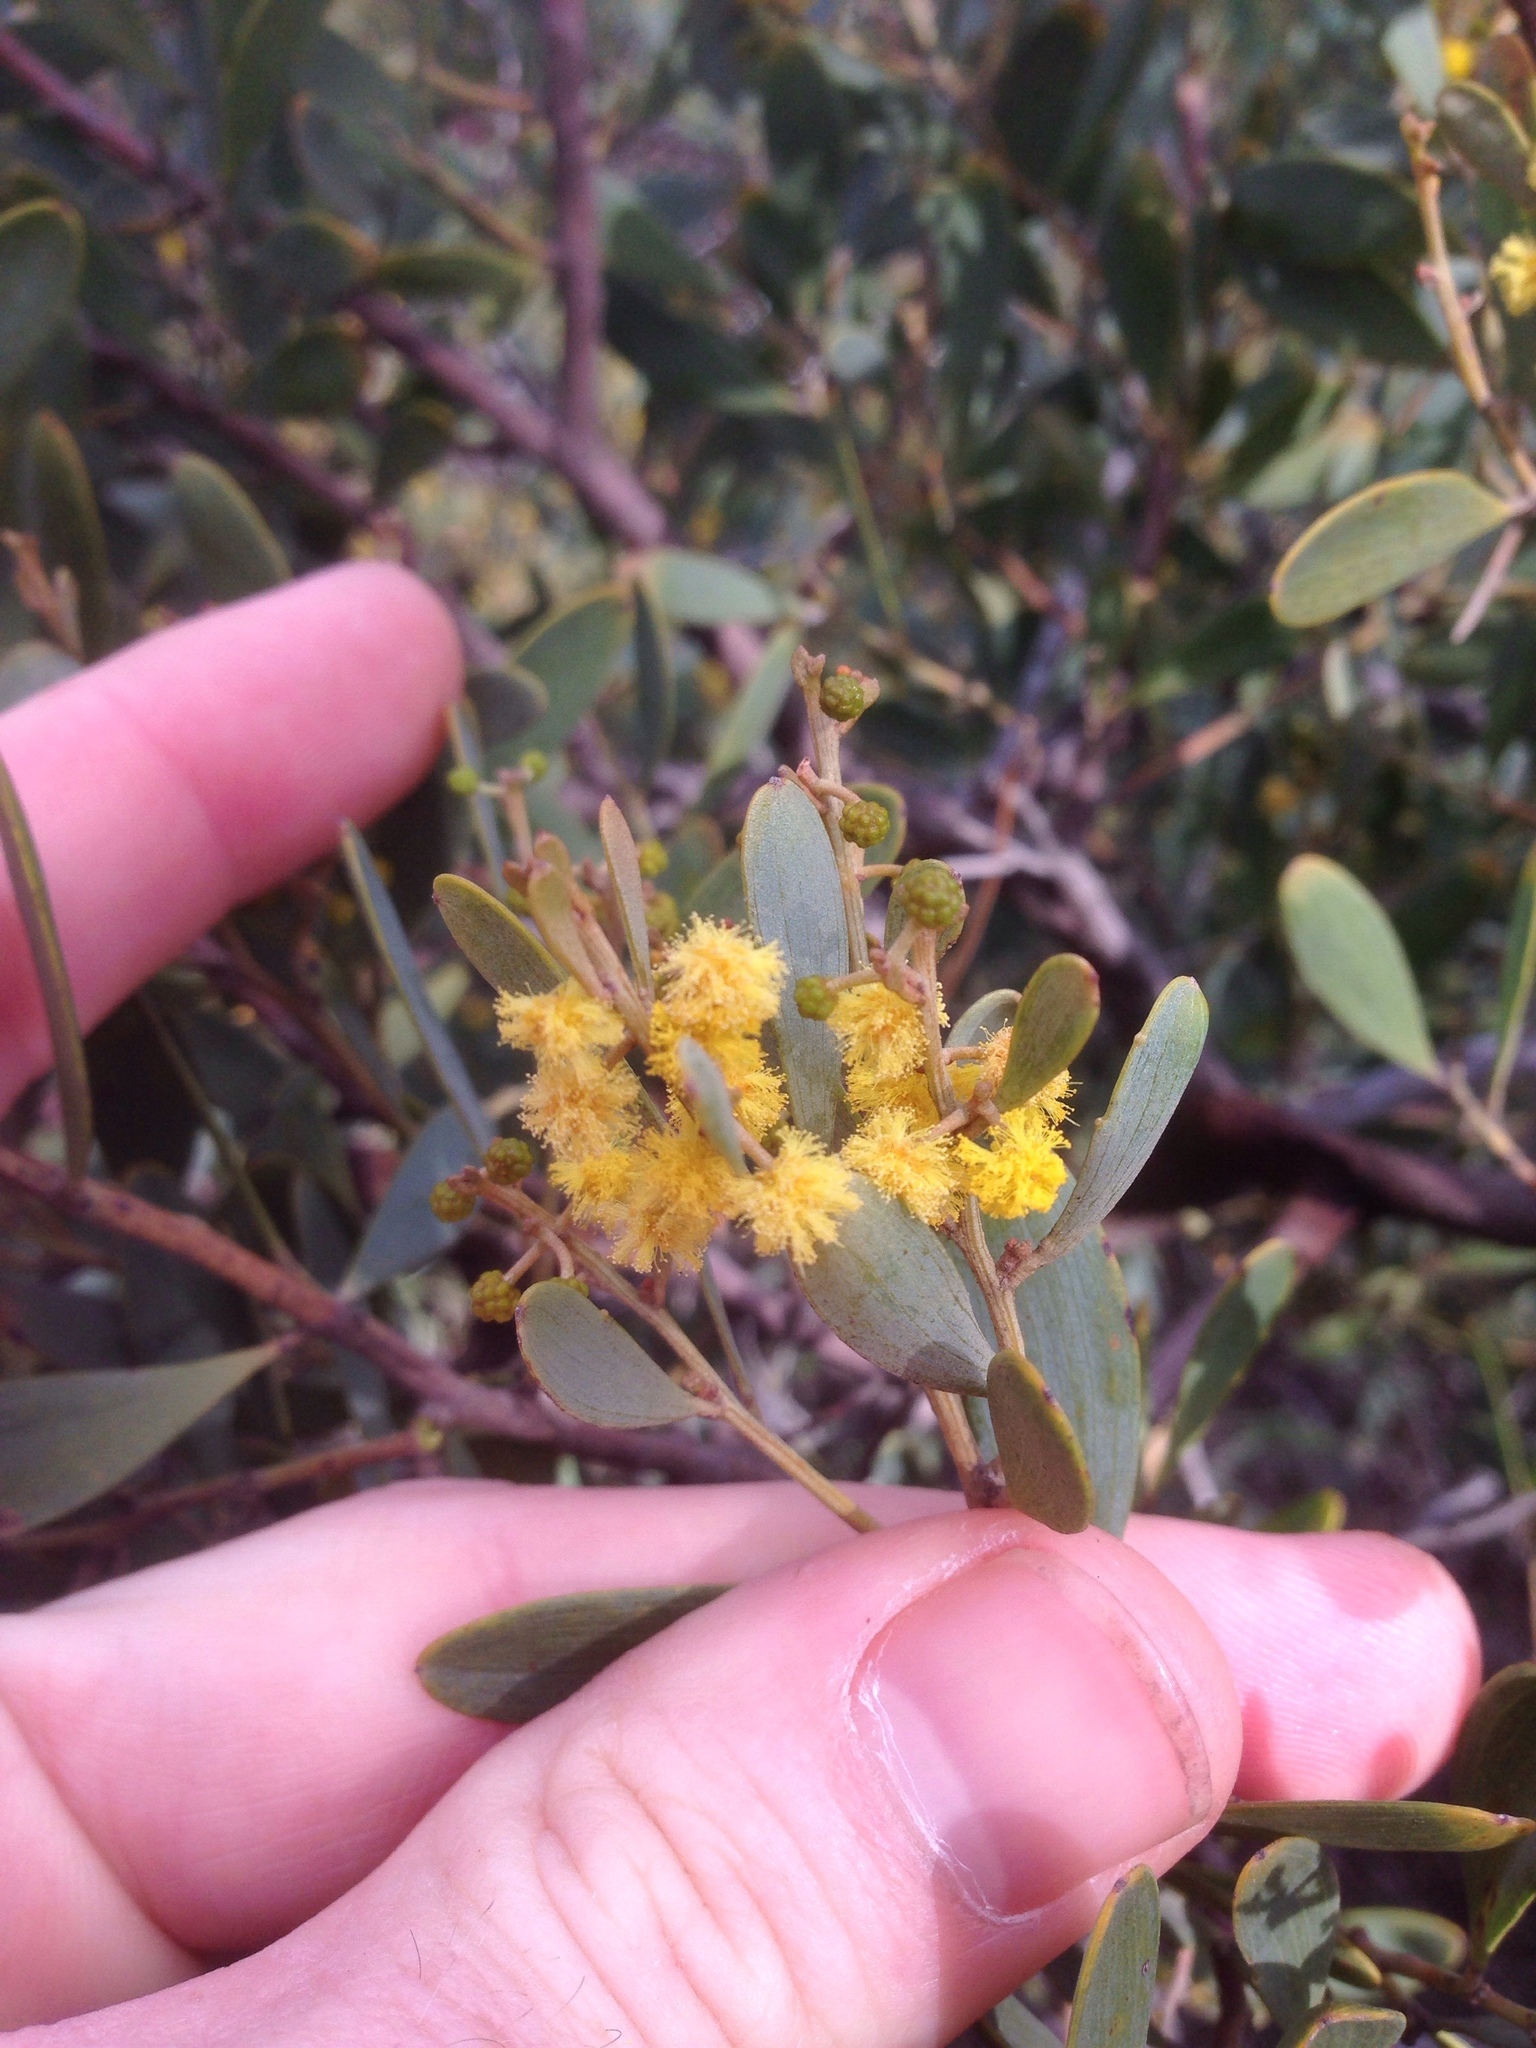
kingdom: Plantae
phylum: Tracheophyta
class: Magnoliopsida
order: Fabales
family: Fabaceae
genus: Acacia
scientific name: Acacia redolens
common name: Bank catclaw
